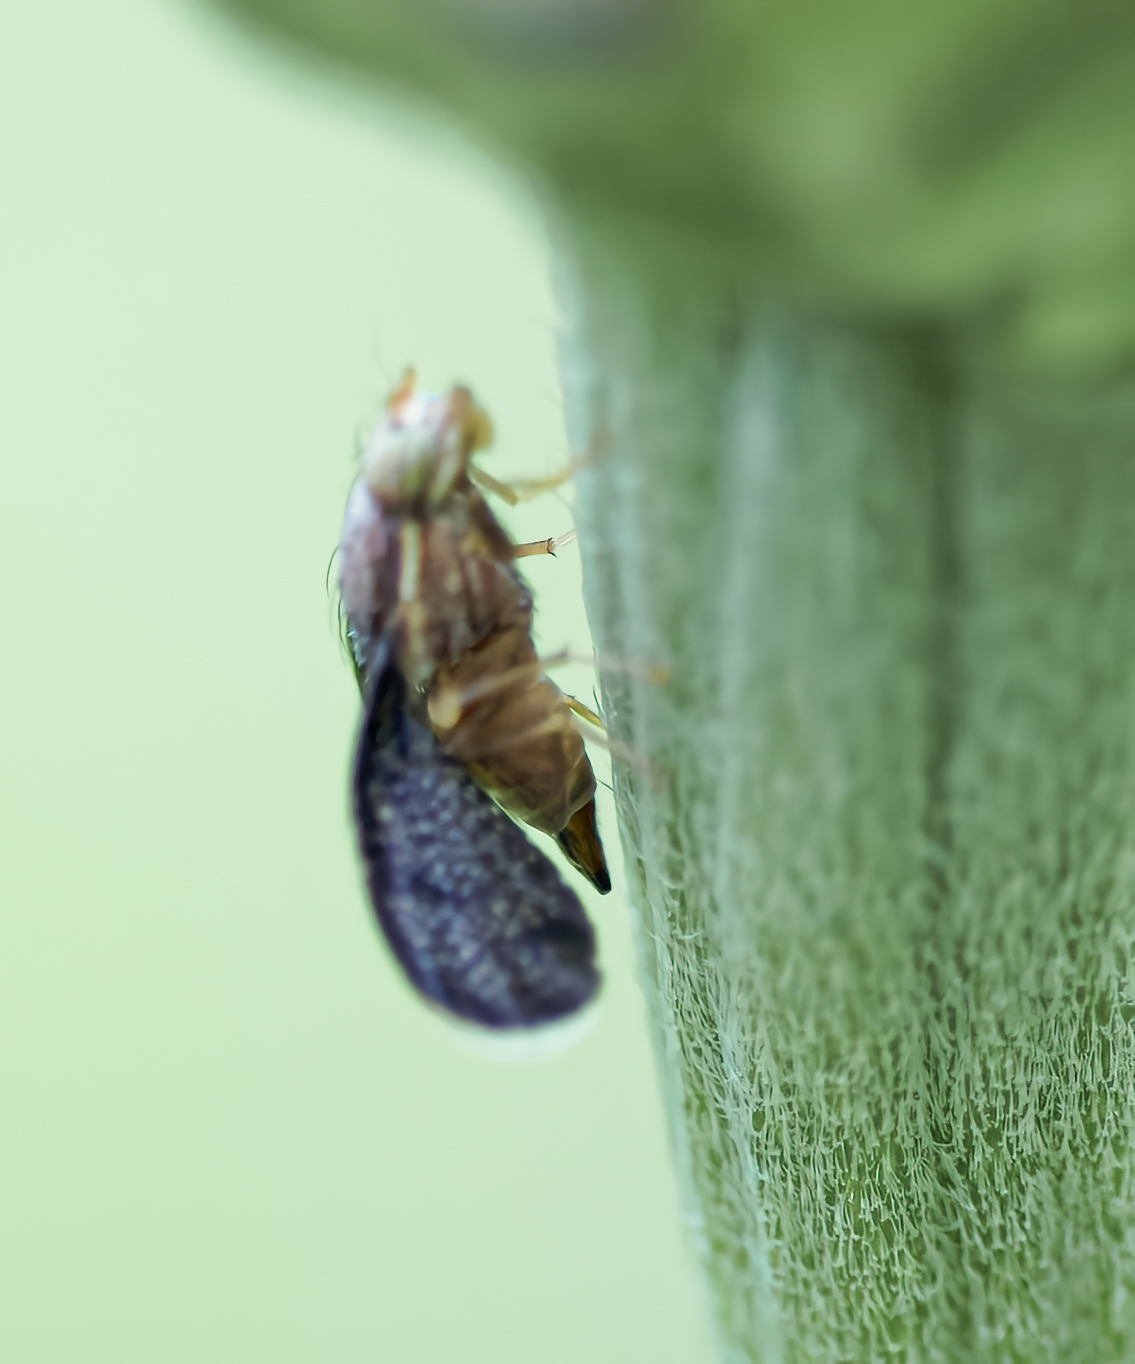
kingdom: Animalia
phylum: Arthropoda
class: Insecta
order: Diptera
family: Tephritidae
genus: Eutreta
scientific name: Eutreta novaeboracensis
